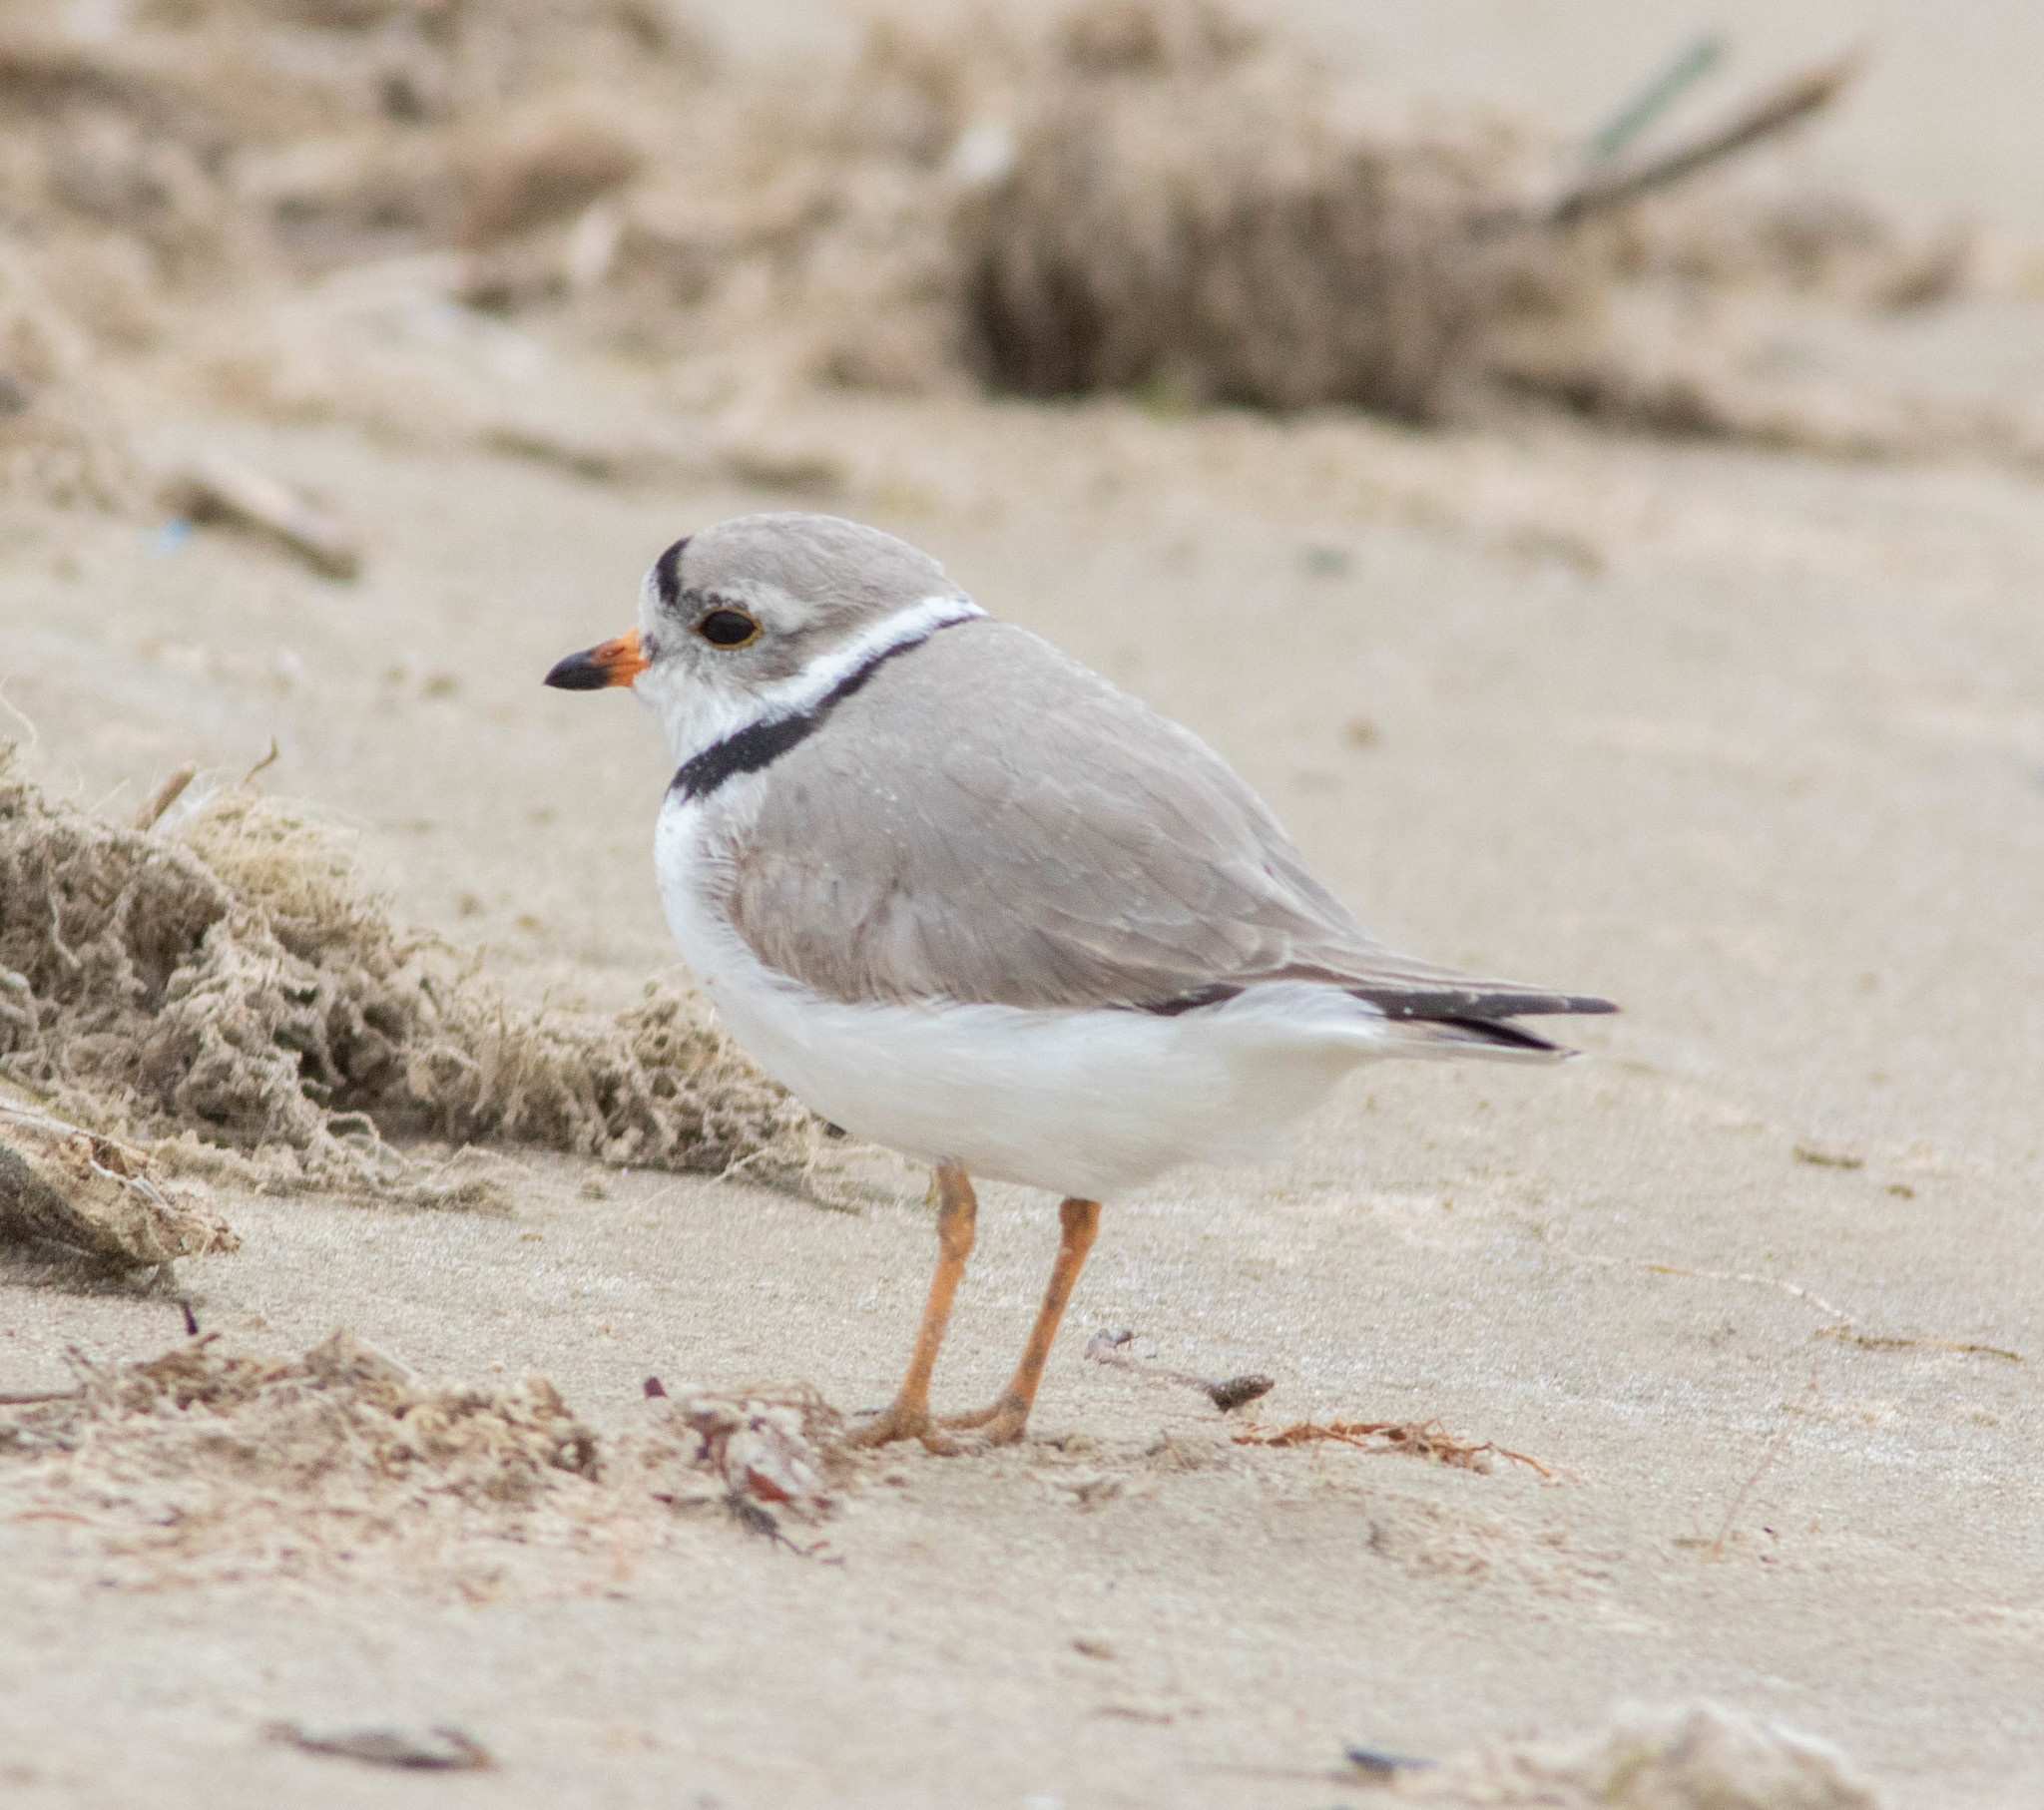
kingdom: Animalia
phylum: Chordata
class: Aves
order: Charadriiformes
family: Charadriidae
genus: Charadrius
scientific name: Charadrius melodus
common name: Piping plover
